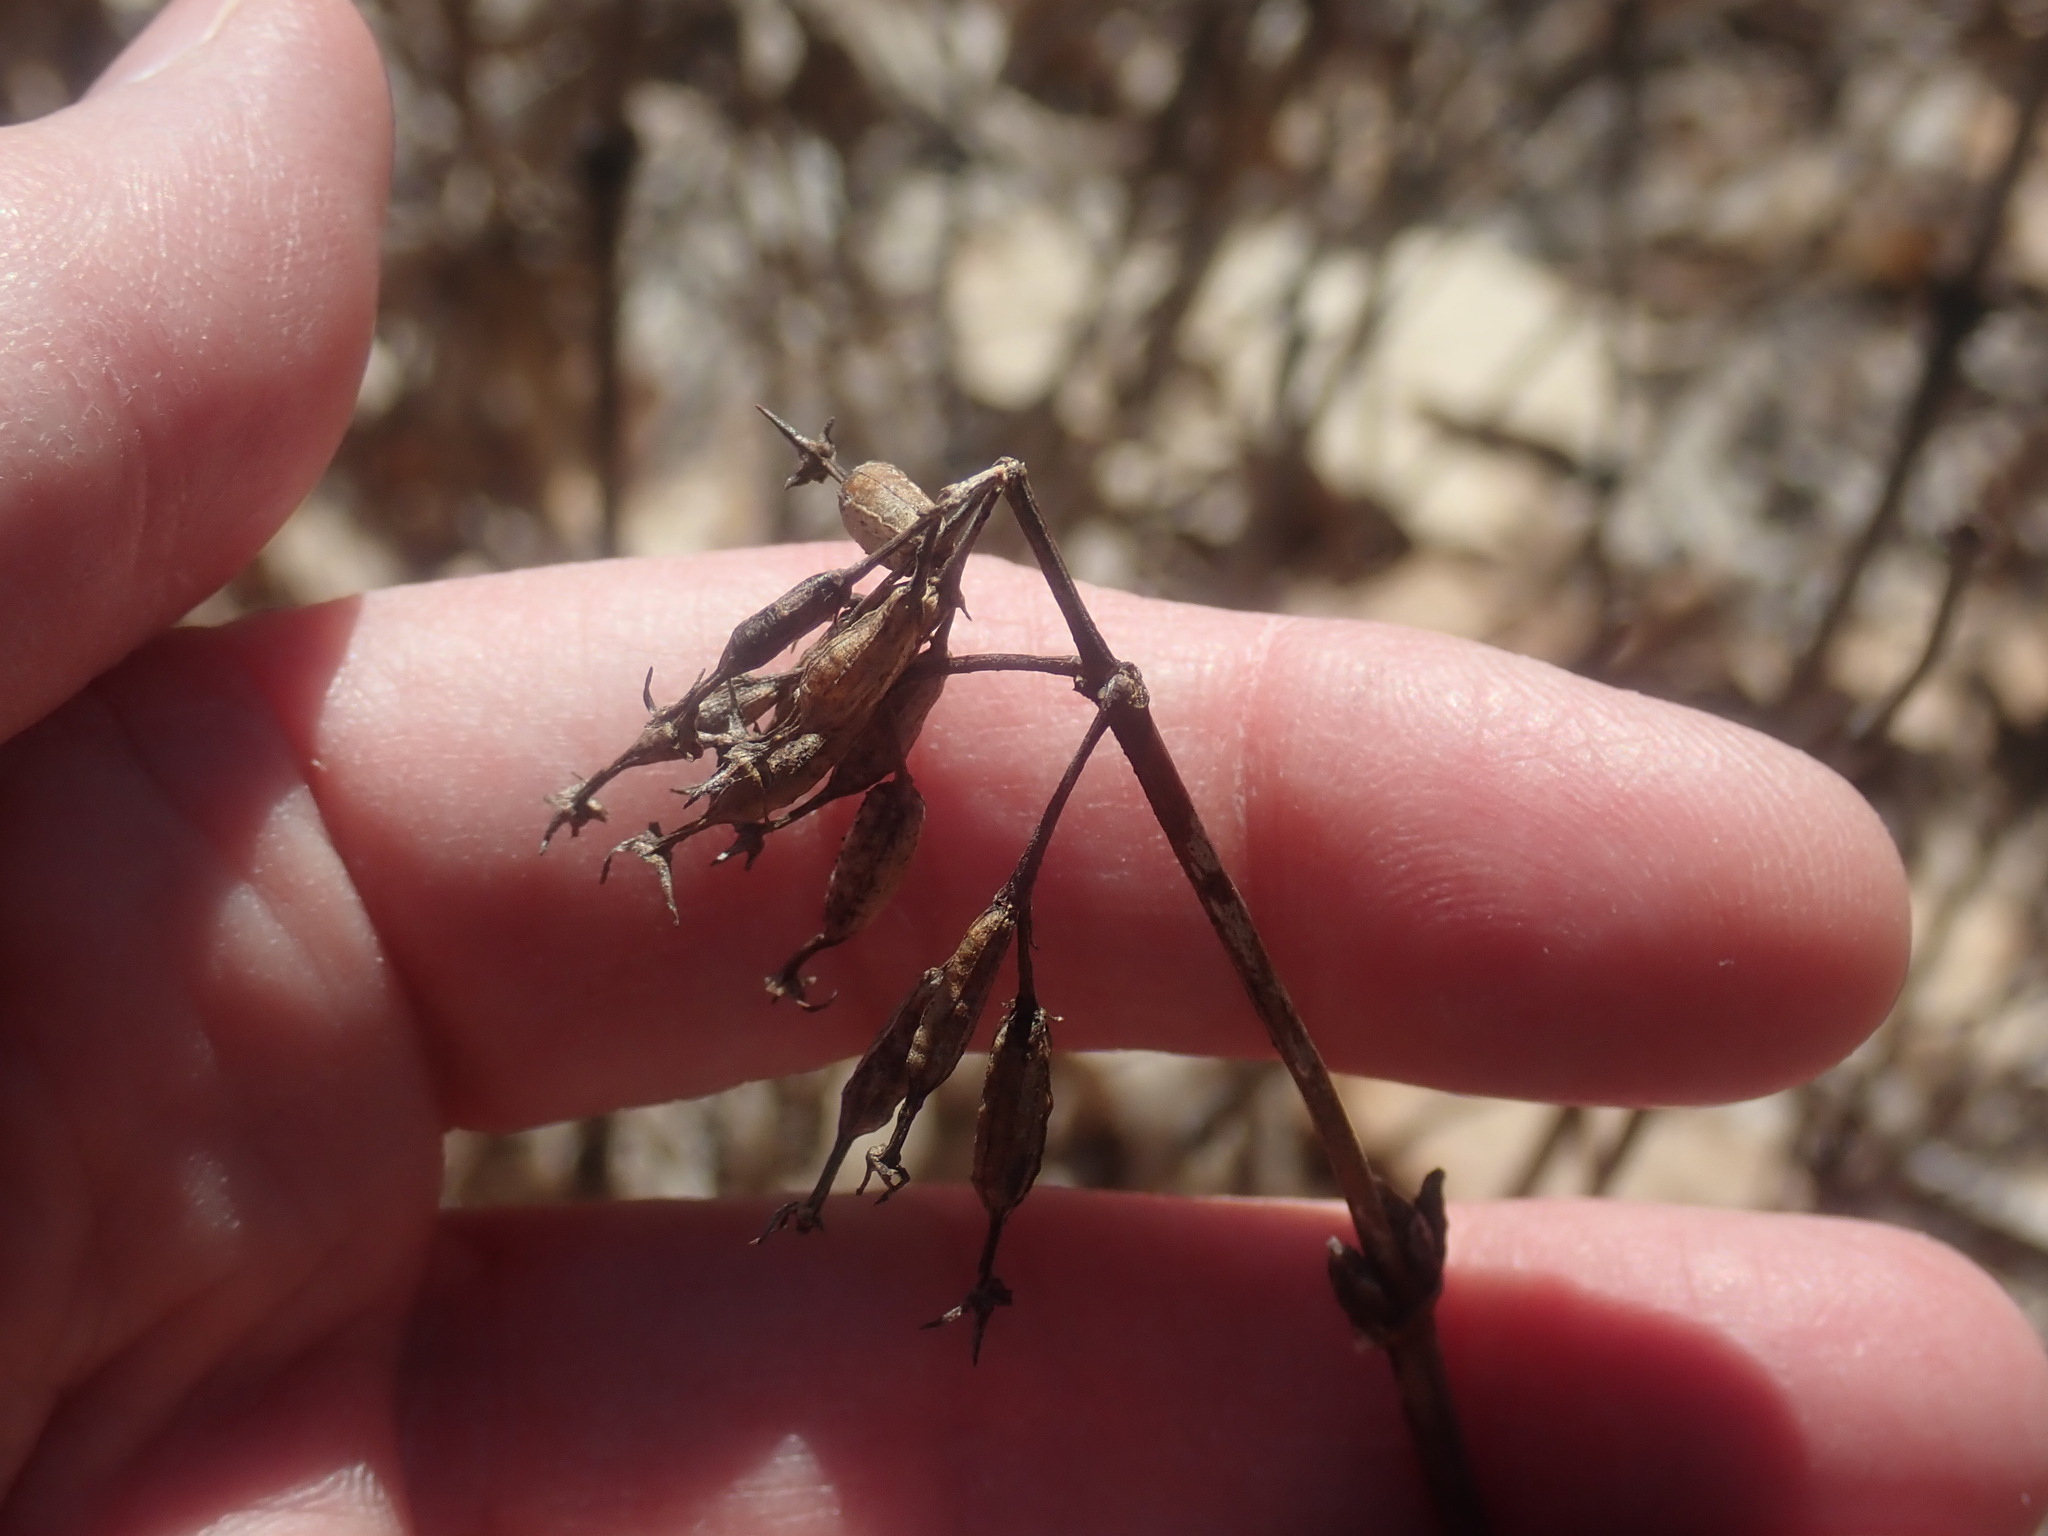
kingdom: Plantae
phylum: Tracheophyta
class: Magnoliopsida
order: Dipsacales
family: Caprifoliaceae
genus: Diervilla
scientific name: Diervilla lonicera
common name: Bush-honeysuckle
